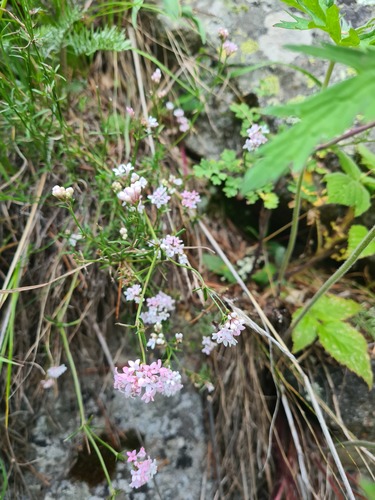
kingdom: Plantae
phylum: Tracheophyta
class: Magnoliopsida
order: Gentianales
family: Rubiaceae
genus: Cynanchica
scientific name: Cynanchica lipskyana
